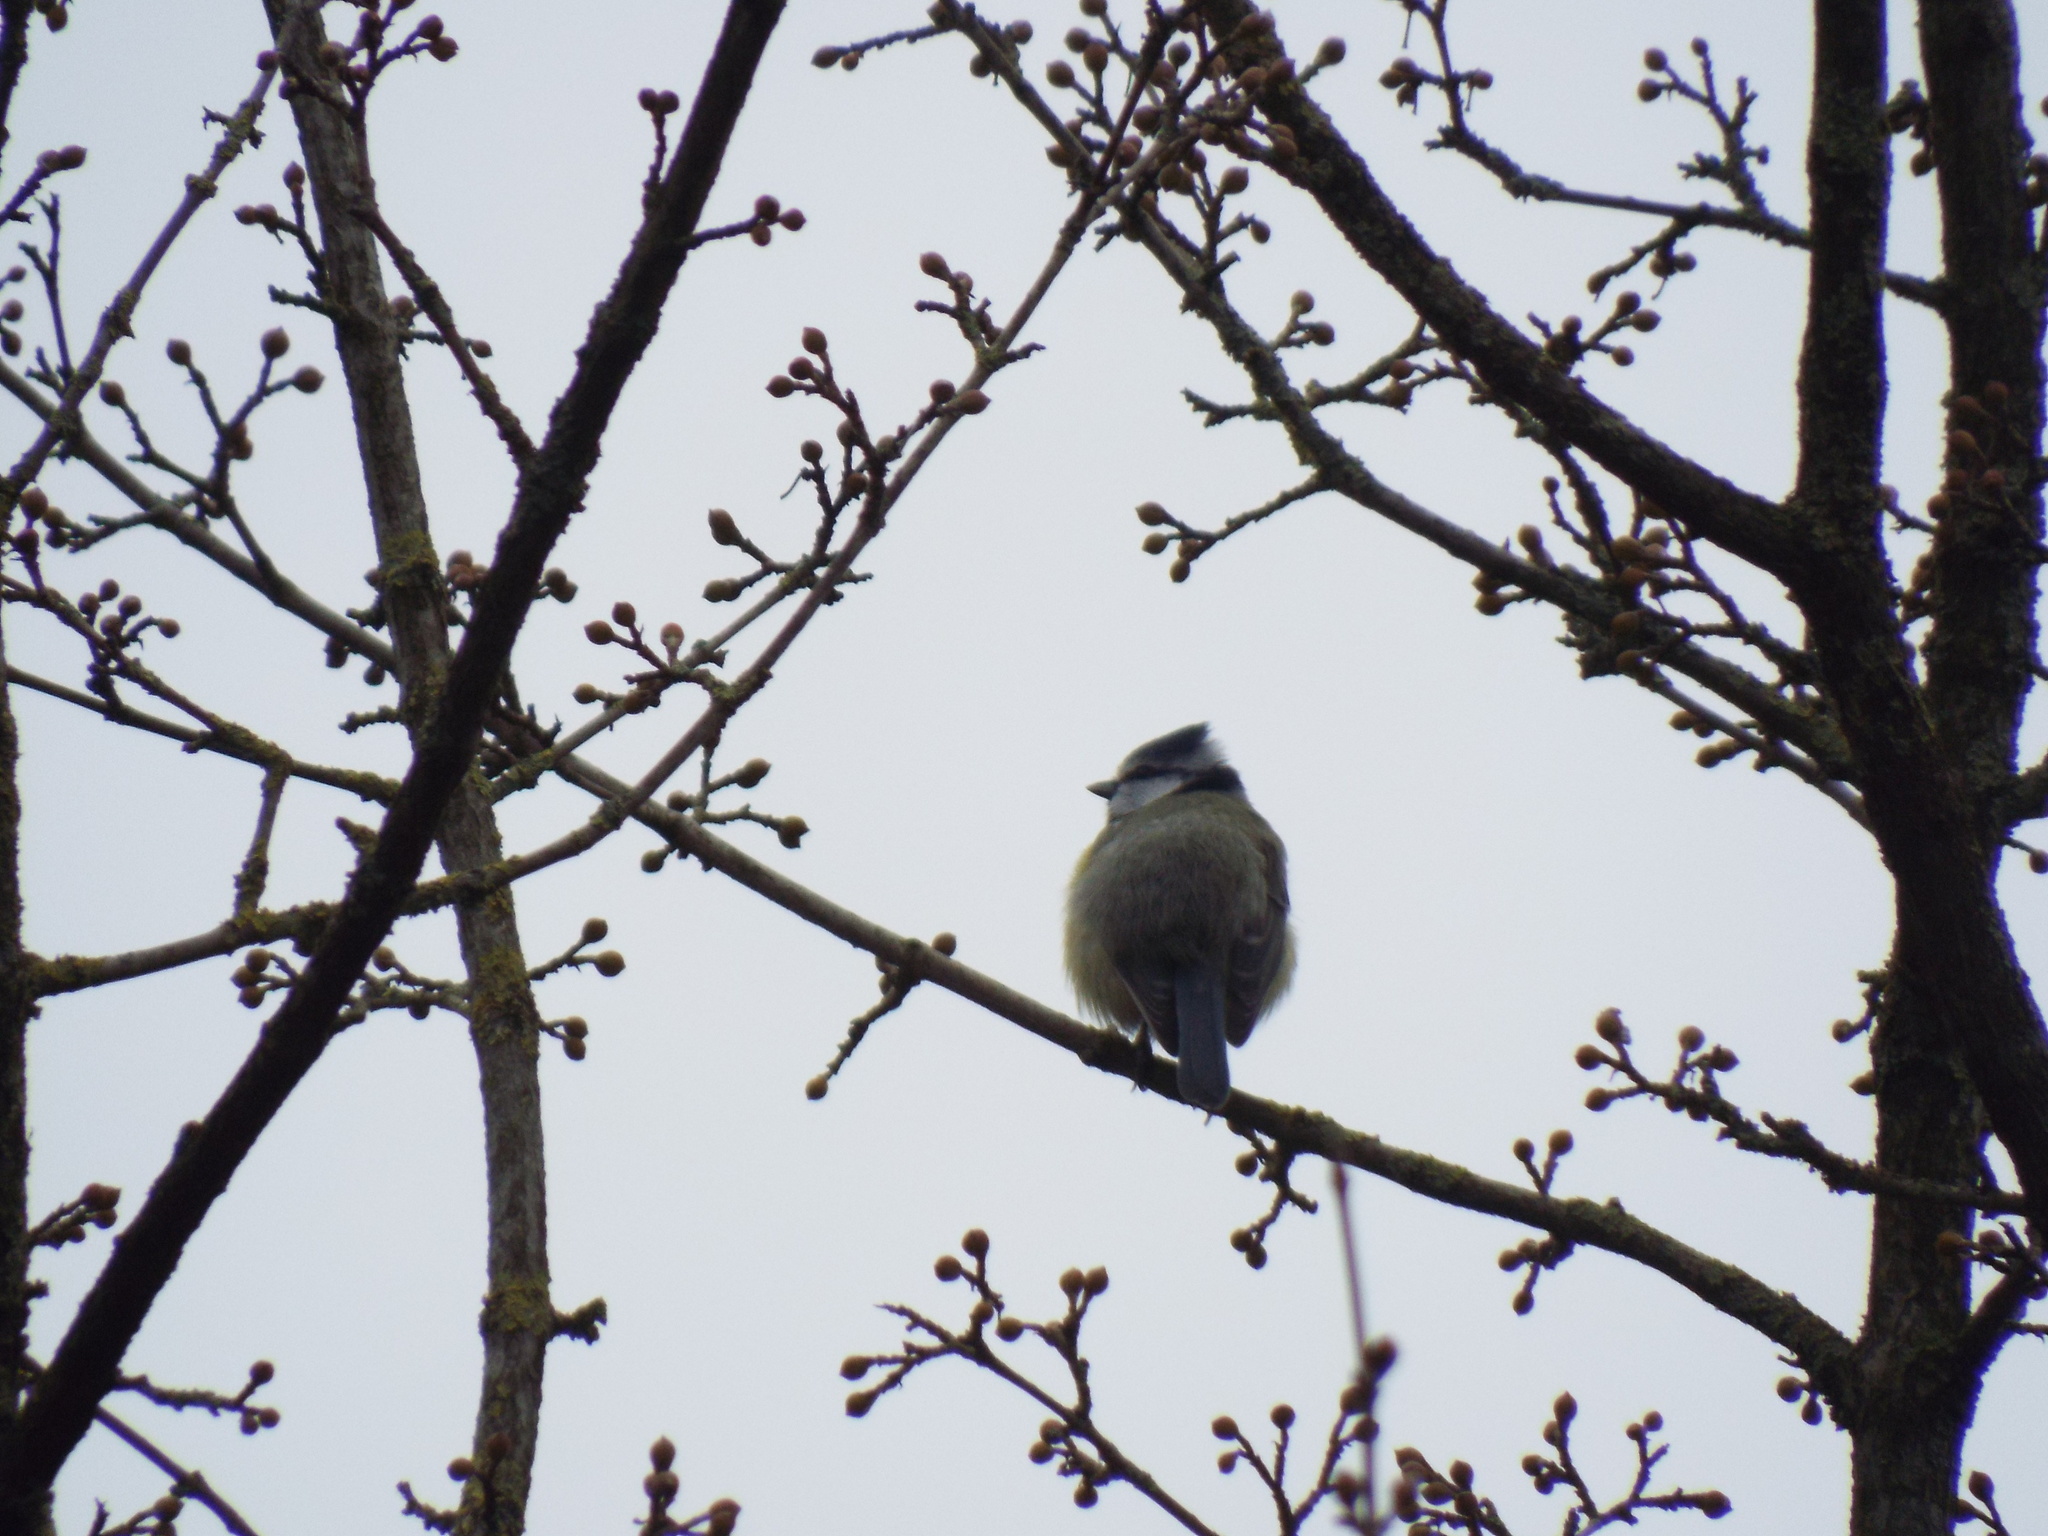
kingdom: Animalia
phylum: Chordata
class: Aves
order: Passeriformes
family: Paridae
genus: Cyanistes
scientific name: Cyanistes caeruleus
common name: Eurasian blue tit
